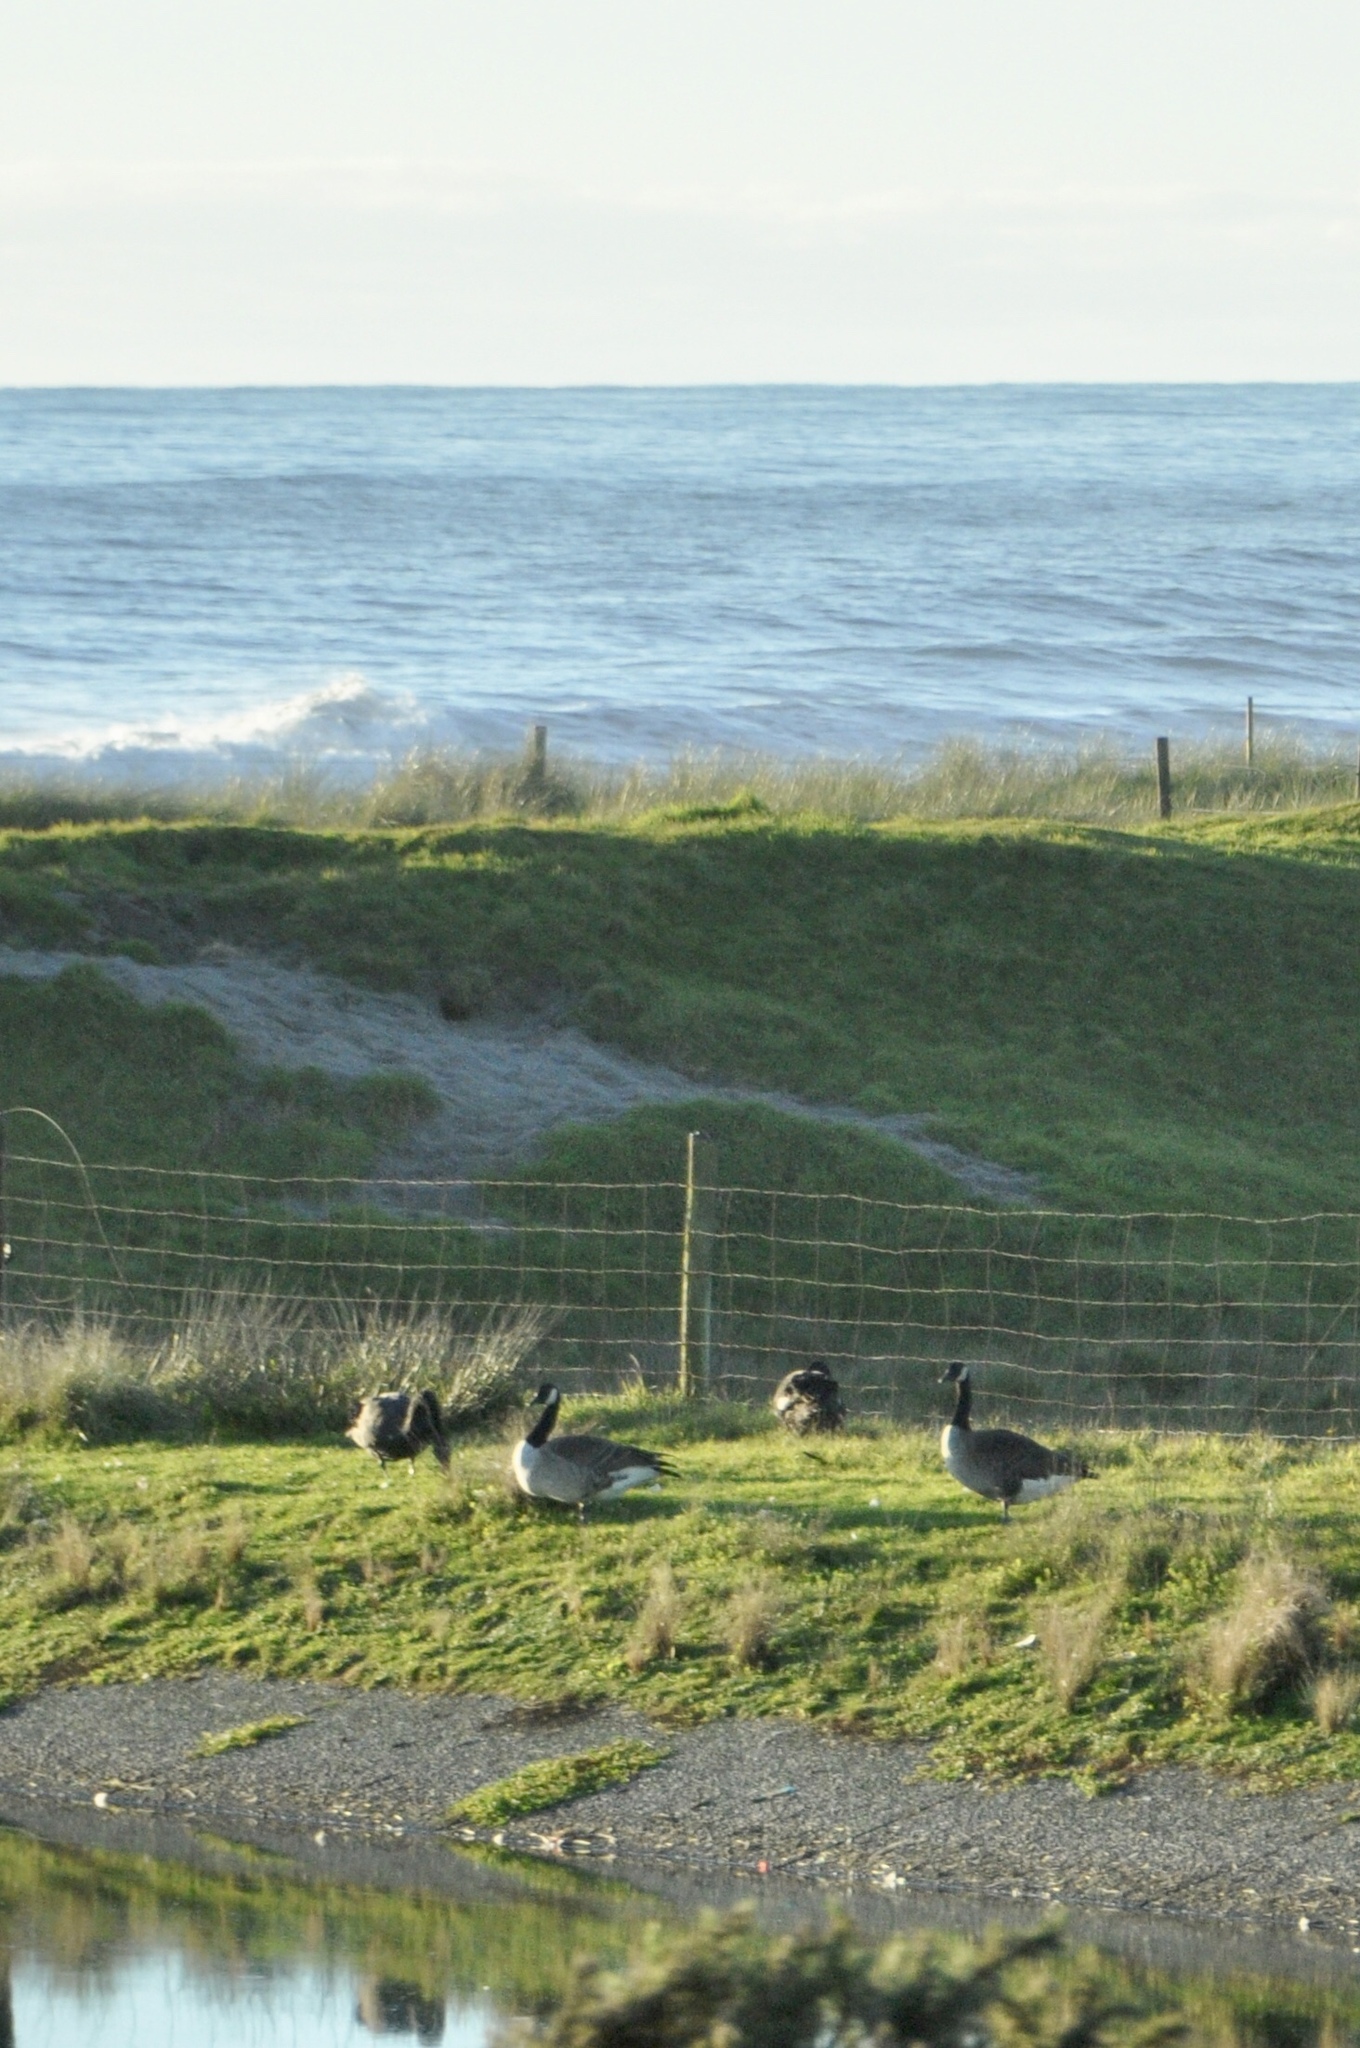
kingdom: Animalia
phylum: Chordata
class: Aves
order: Anseriformes
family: Anatidae
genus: Branta
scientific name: Branta canadensis
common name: Canada goose
